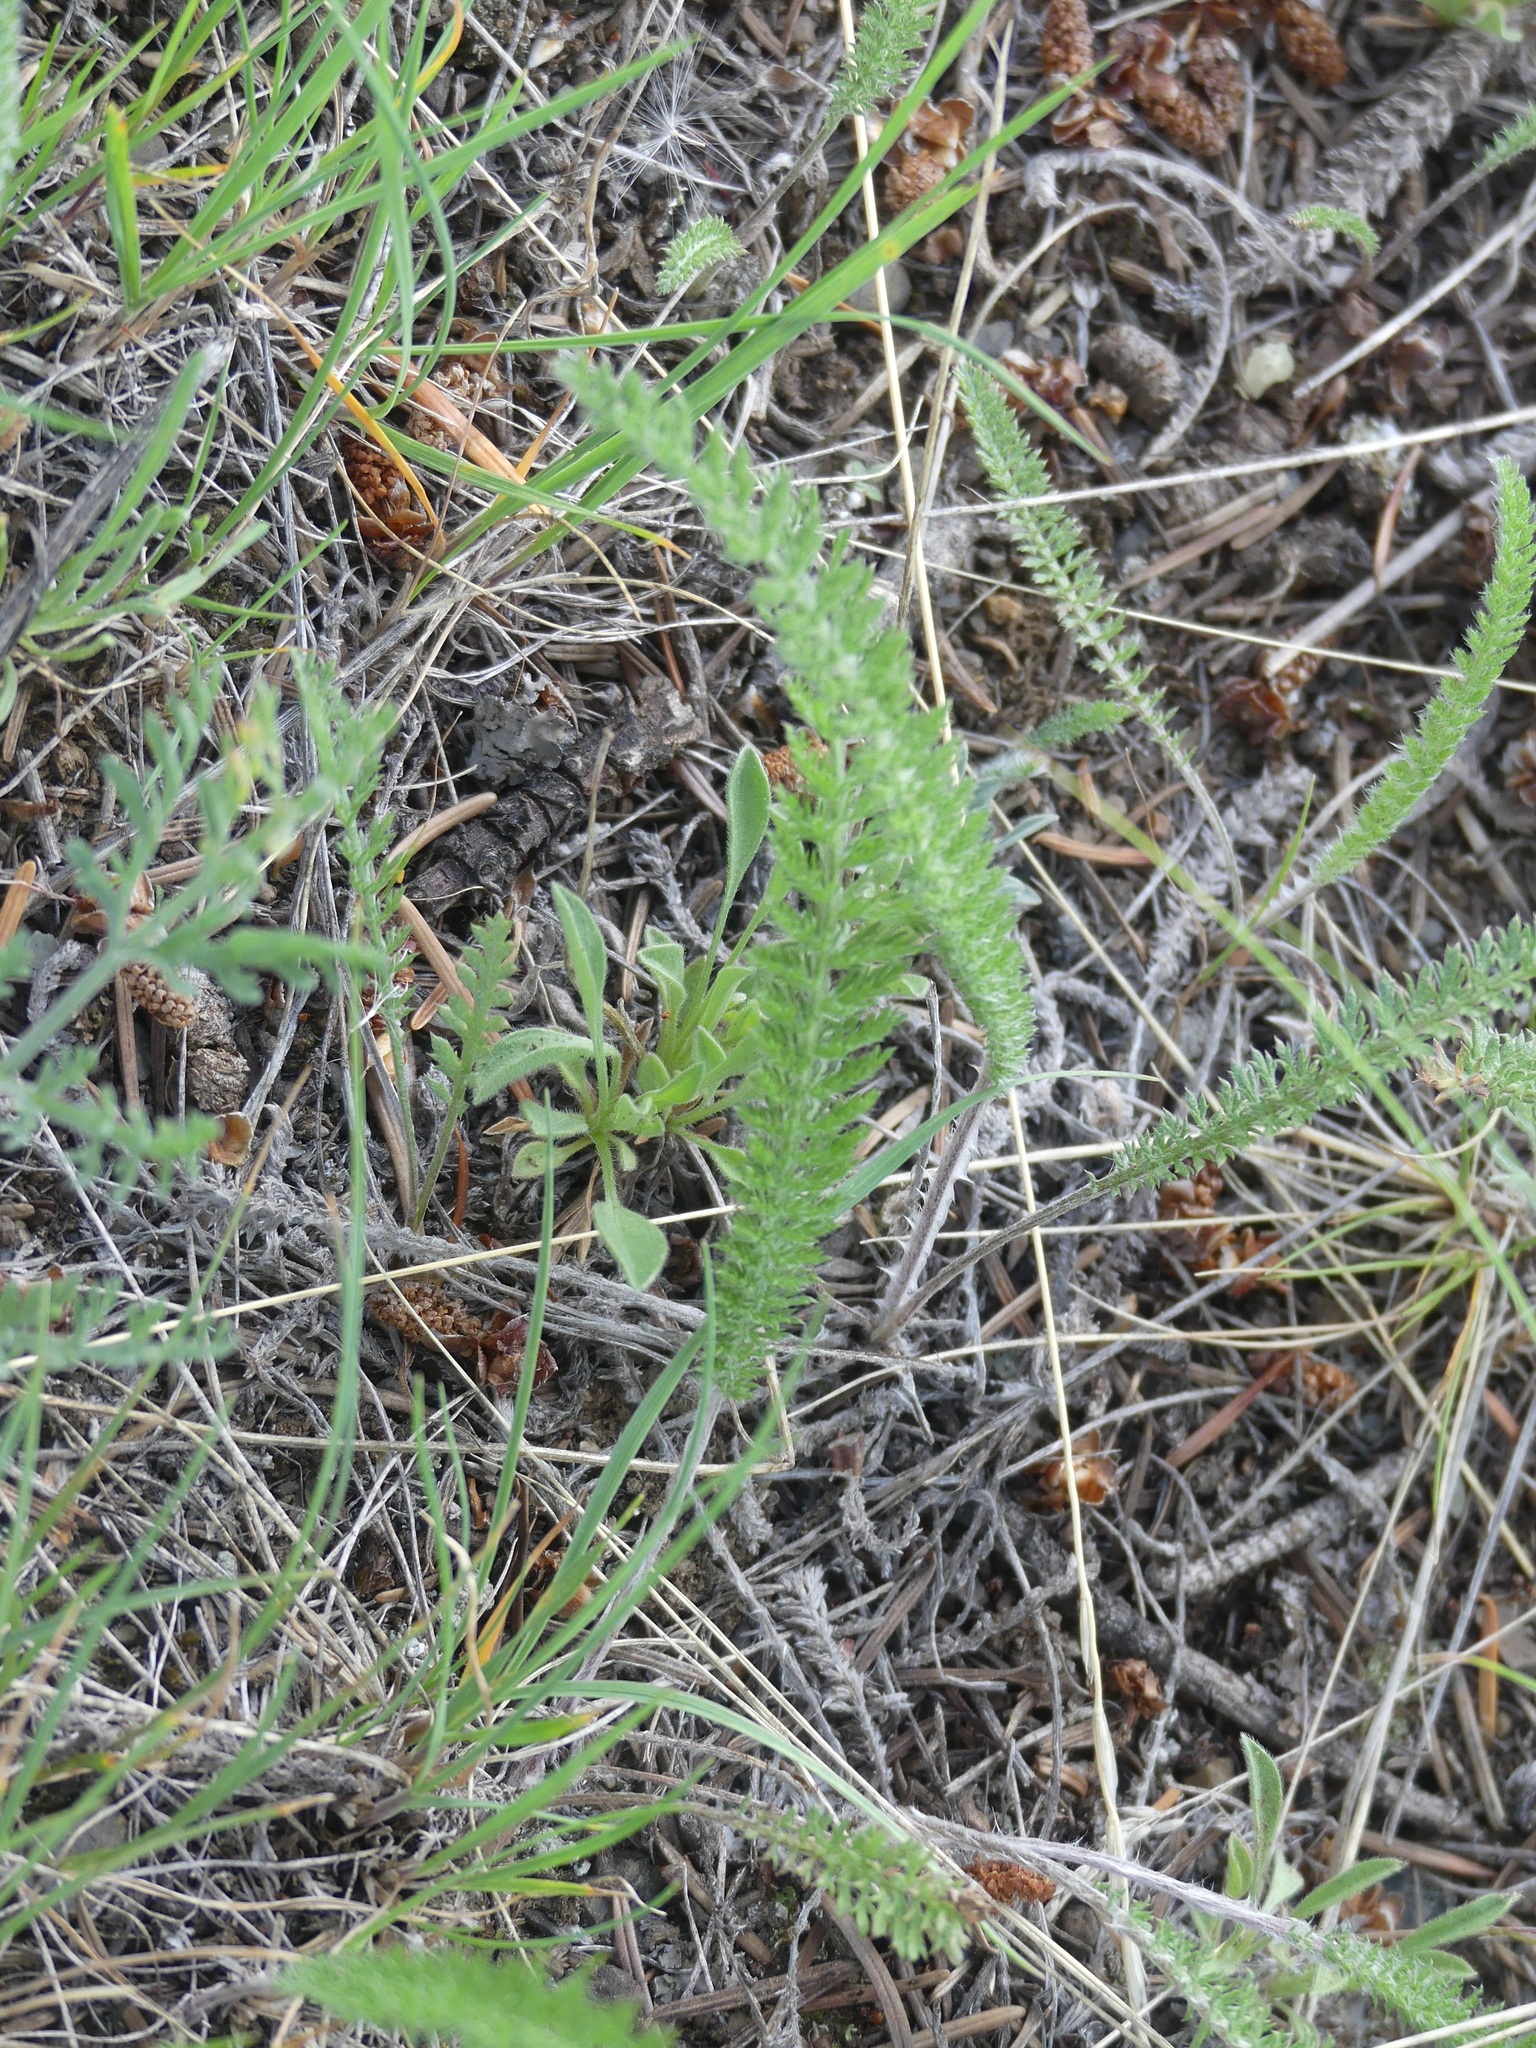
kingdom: Plantae
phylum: Tracheophyta
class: Magnoliopsida
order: Asterales
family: Asteraceae
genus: Achillea
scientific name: Achillea millefolium
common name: Yarrow
